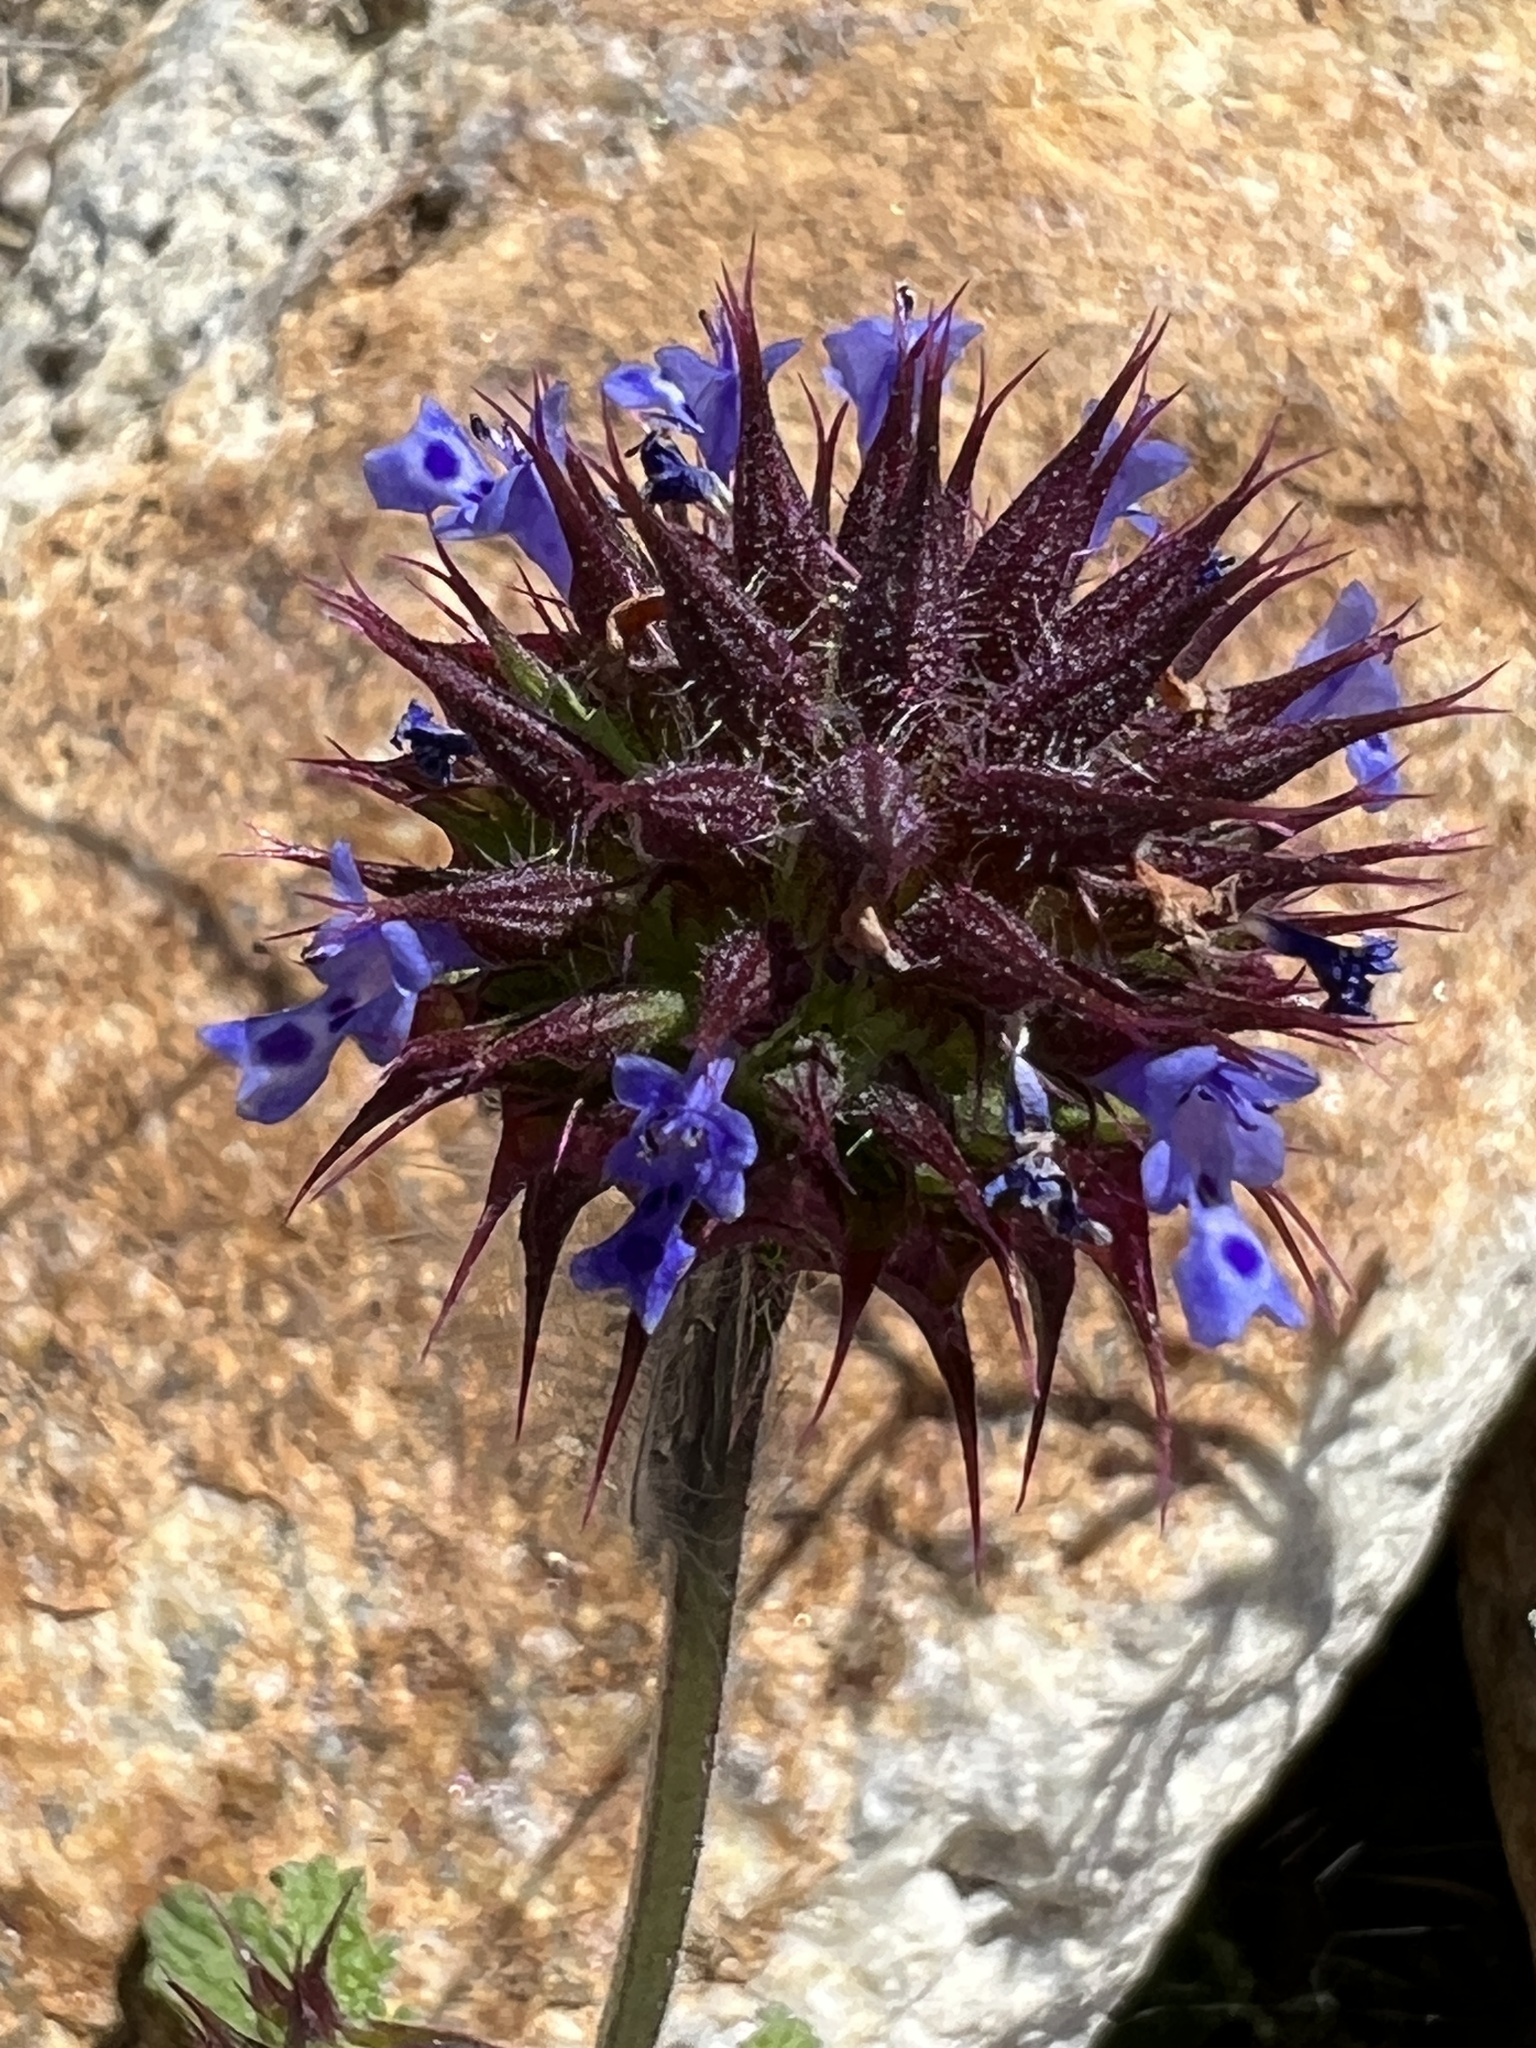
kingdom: Plantae
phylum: Tracheophyta
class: Magnoliopsida
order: Lamiales
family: Lamiaceae
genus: Salvia
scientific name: Salvia columbariae
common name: Chia
